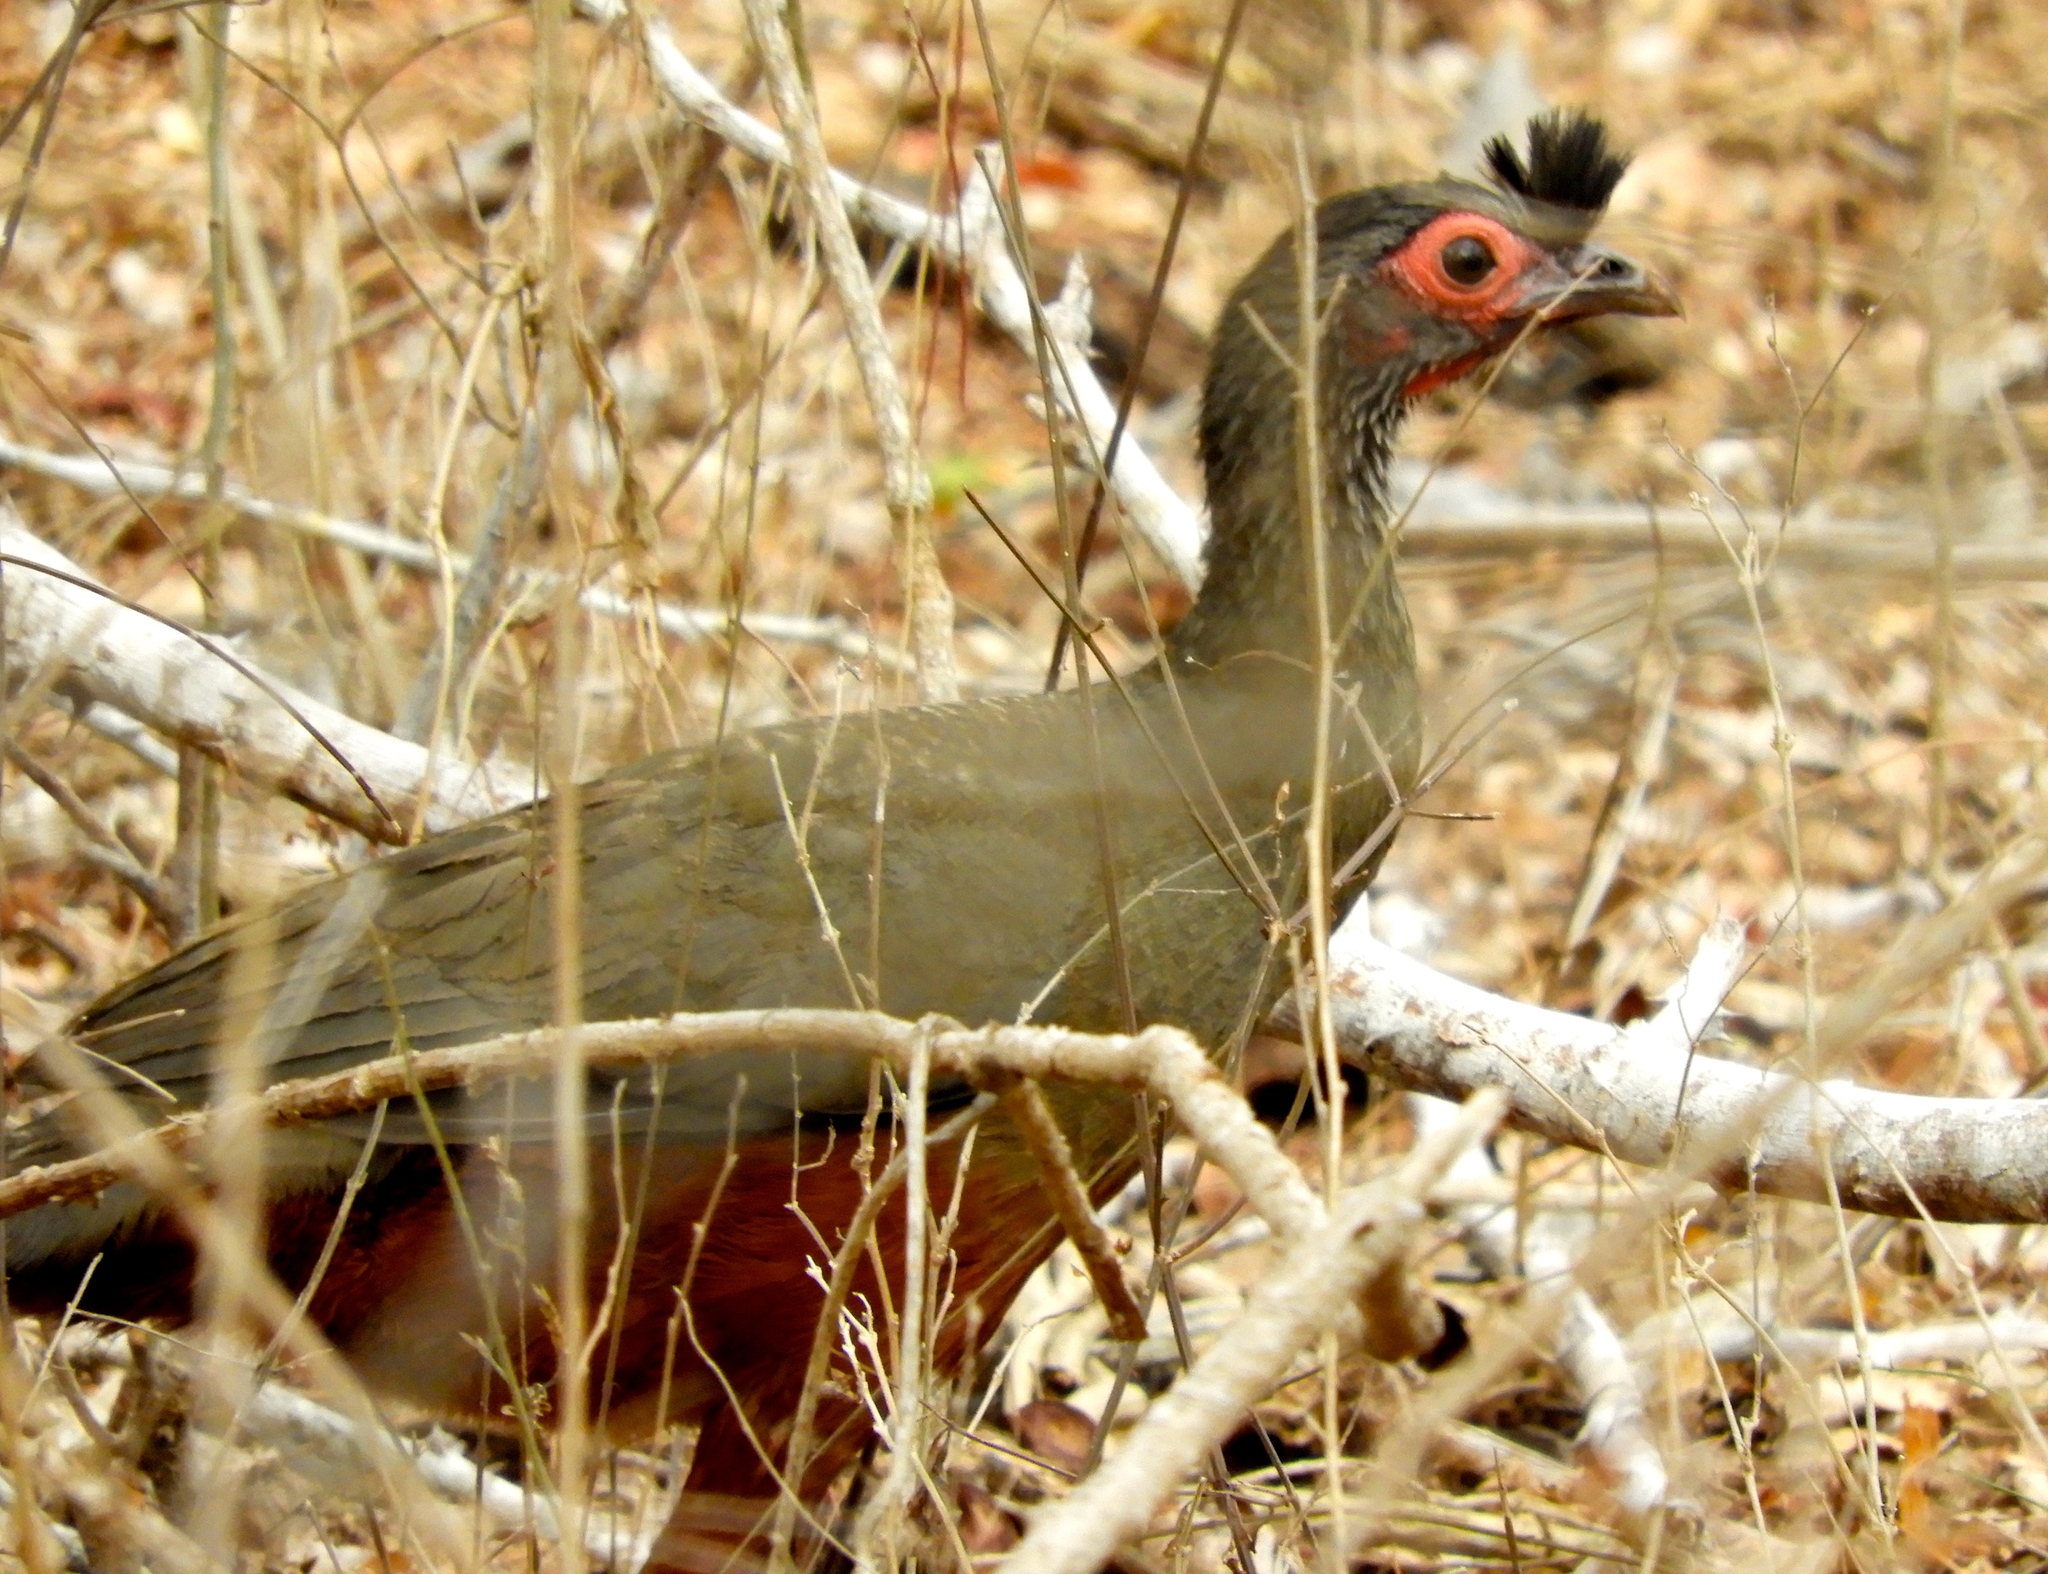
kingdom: Animalia
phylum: Chordata
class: Aves
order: Galliformes
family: Cracidae
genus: Ortalis
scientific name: Ortalis wagleri
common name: Rufous-bellied chachalaca
